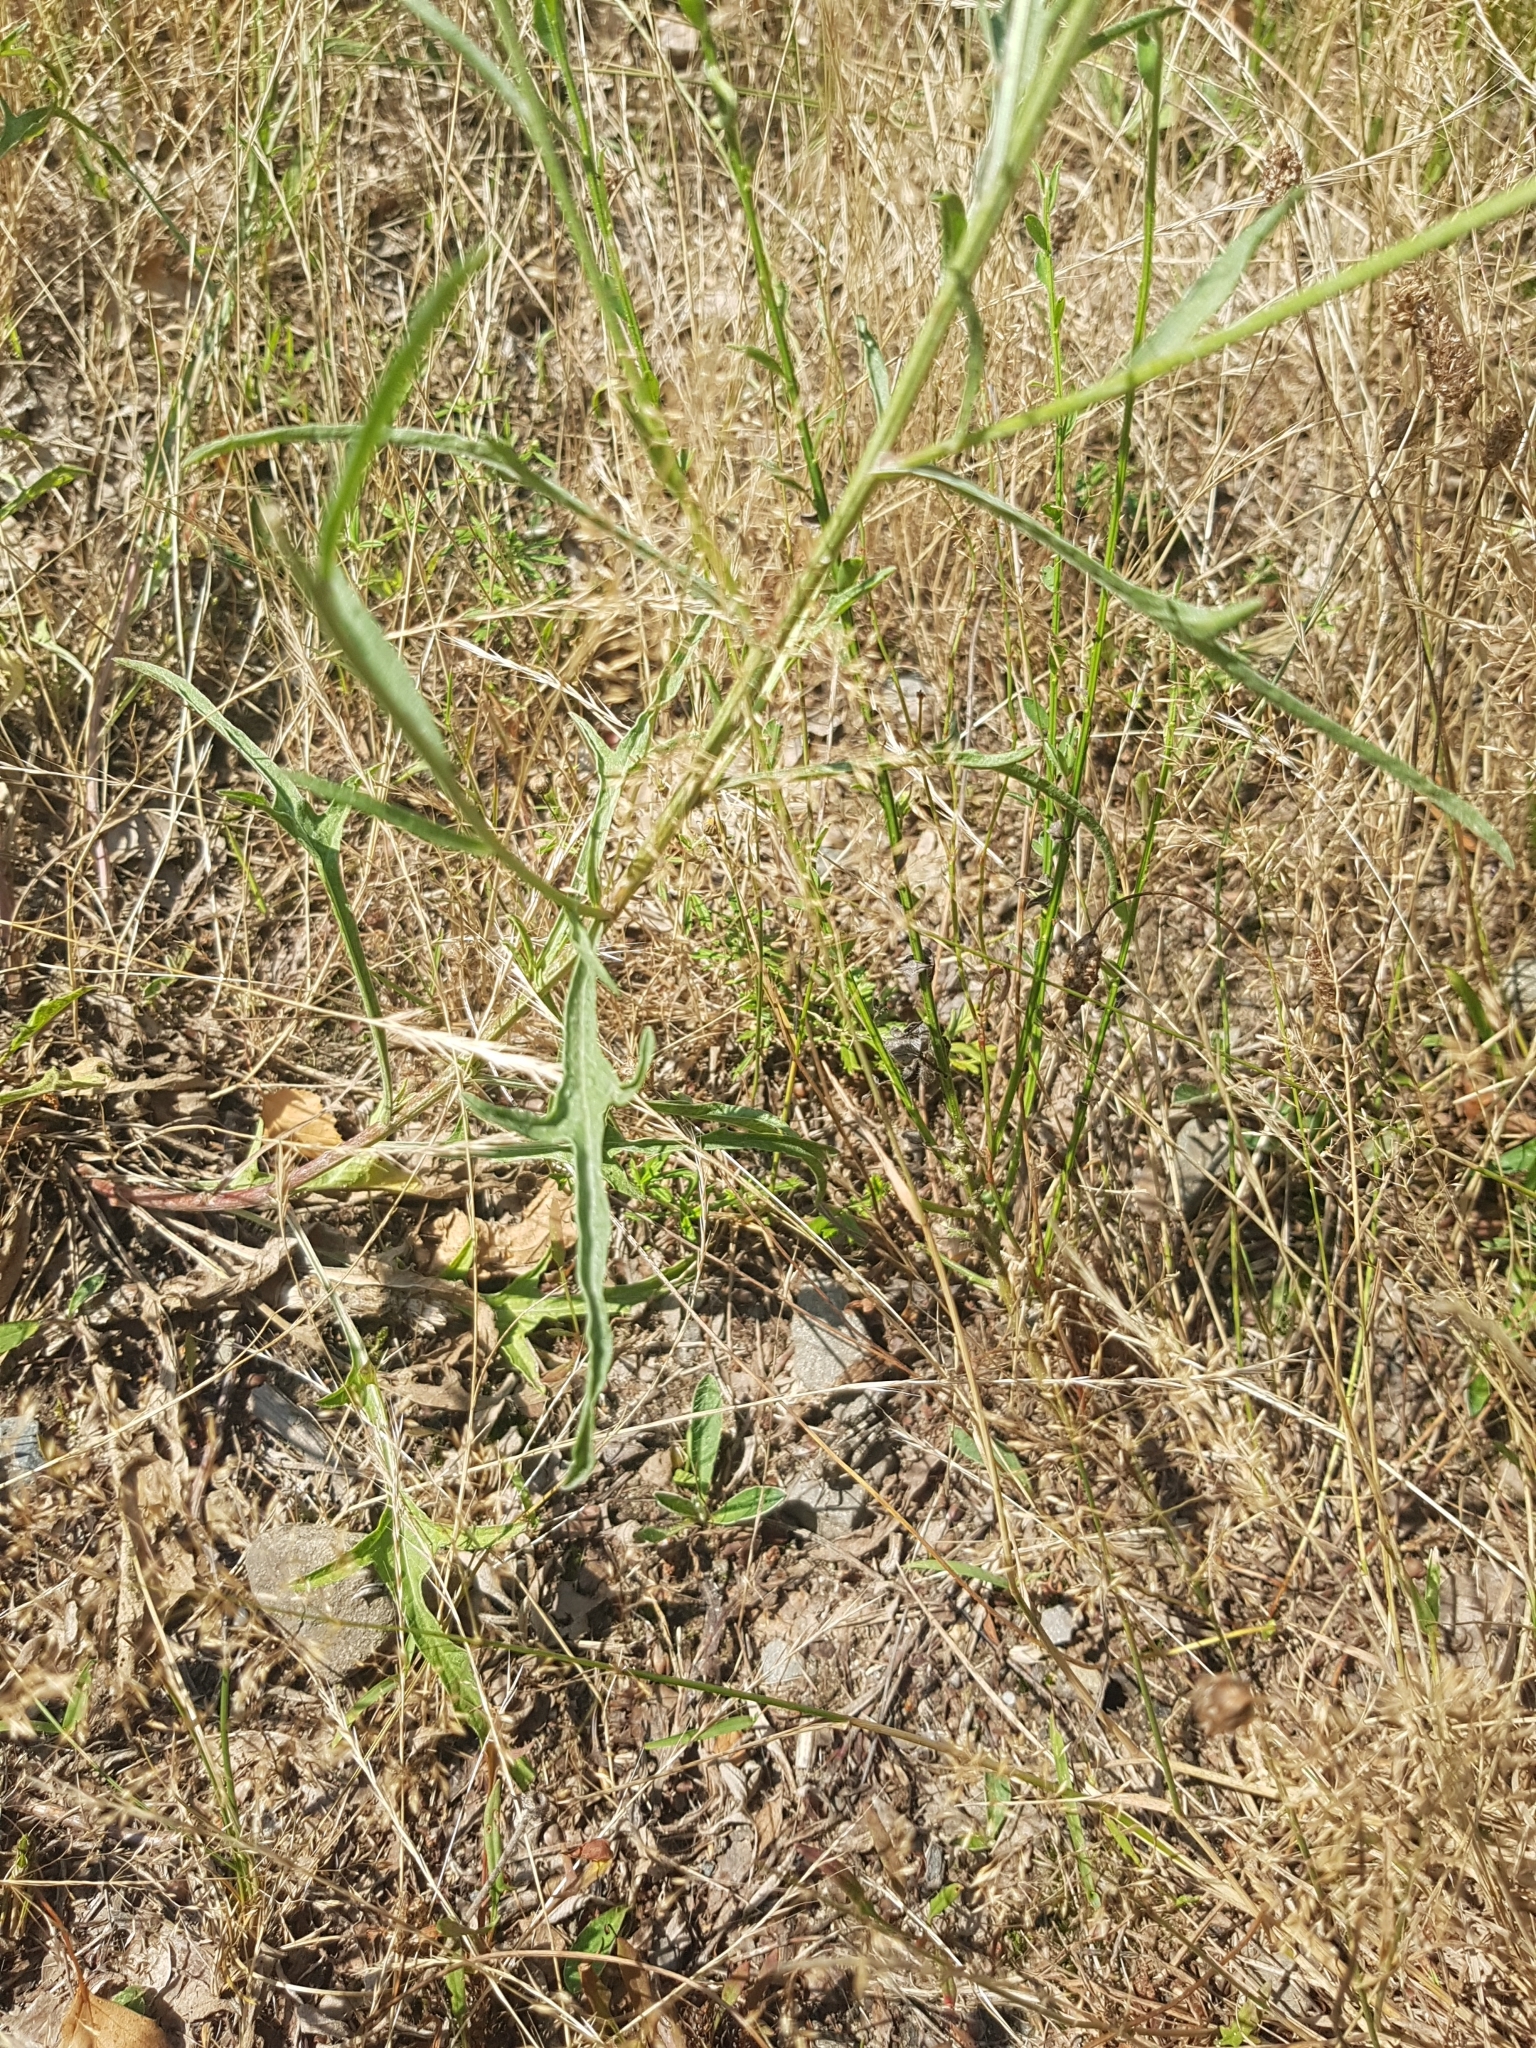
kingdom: Plantae
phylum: Tracheophyta
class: Magnoliopsida
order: Asterales
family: Asteraceae
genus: Centaurea
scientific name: Centaurea jacea
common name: Brown knapweed
